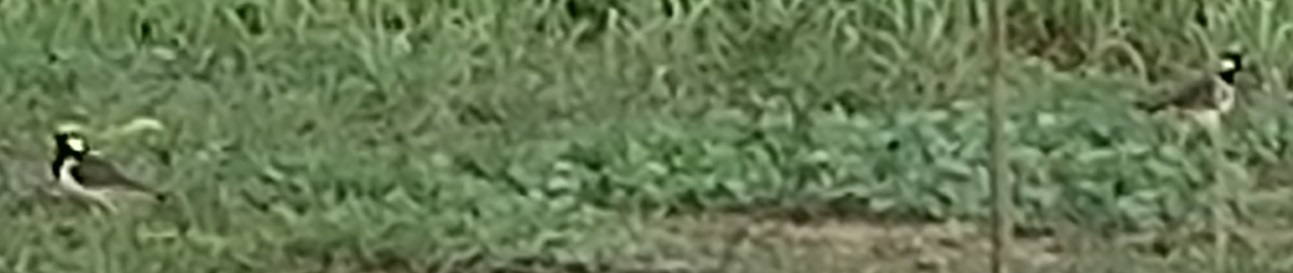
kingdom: Animalia
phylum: Chordata
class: Aves
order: Charadriiformes
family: Charadriidae
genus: Vanellus
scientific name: Vanellus indicus
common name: Red-wattled lapwing
